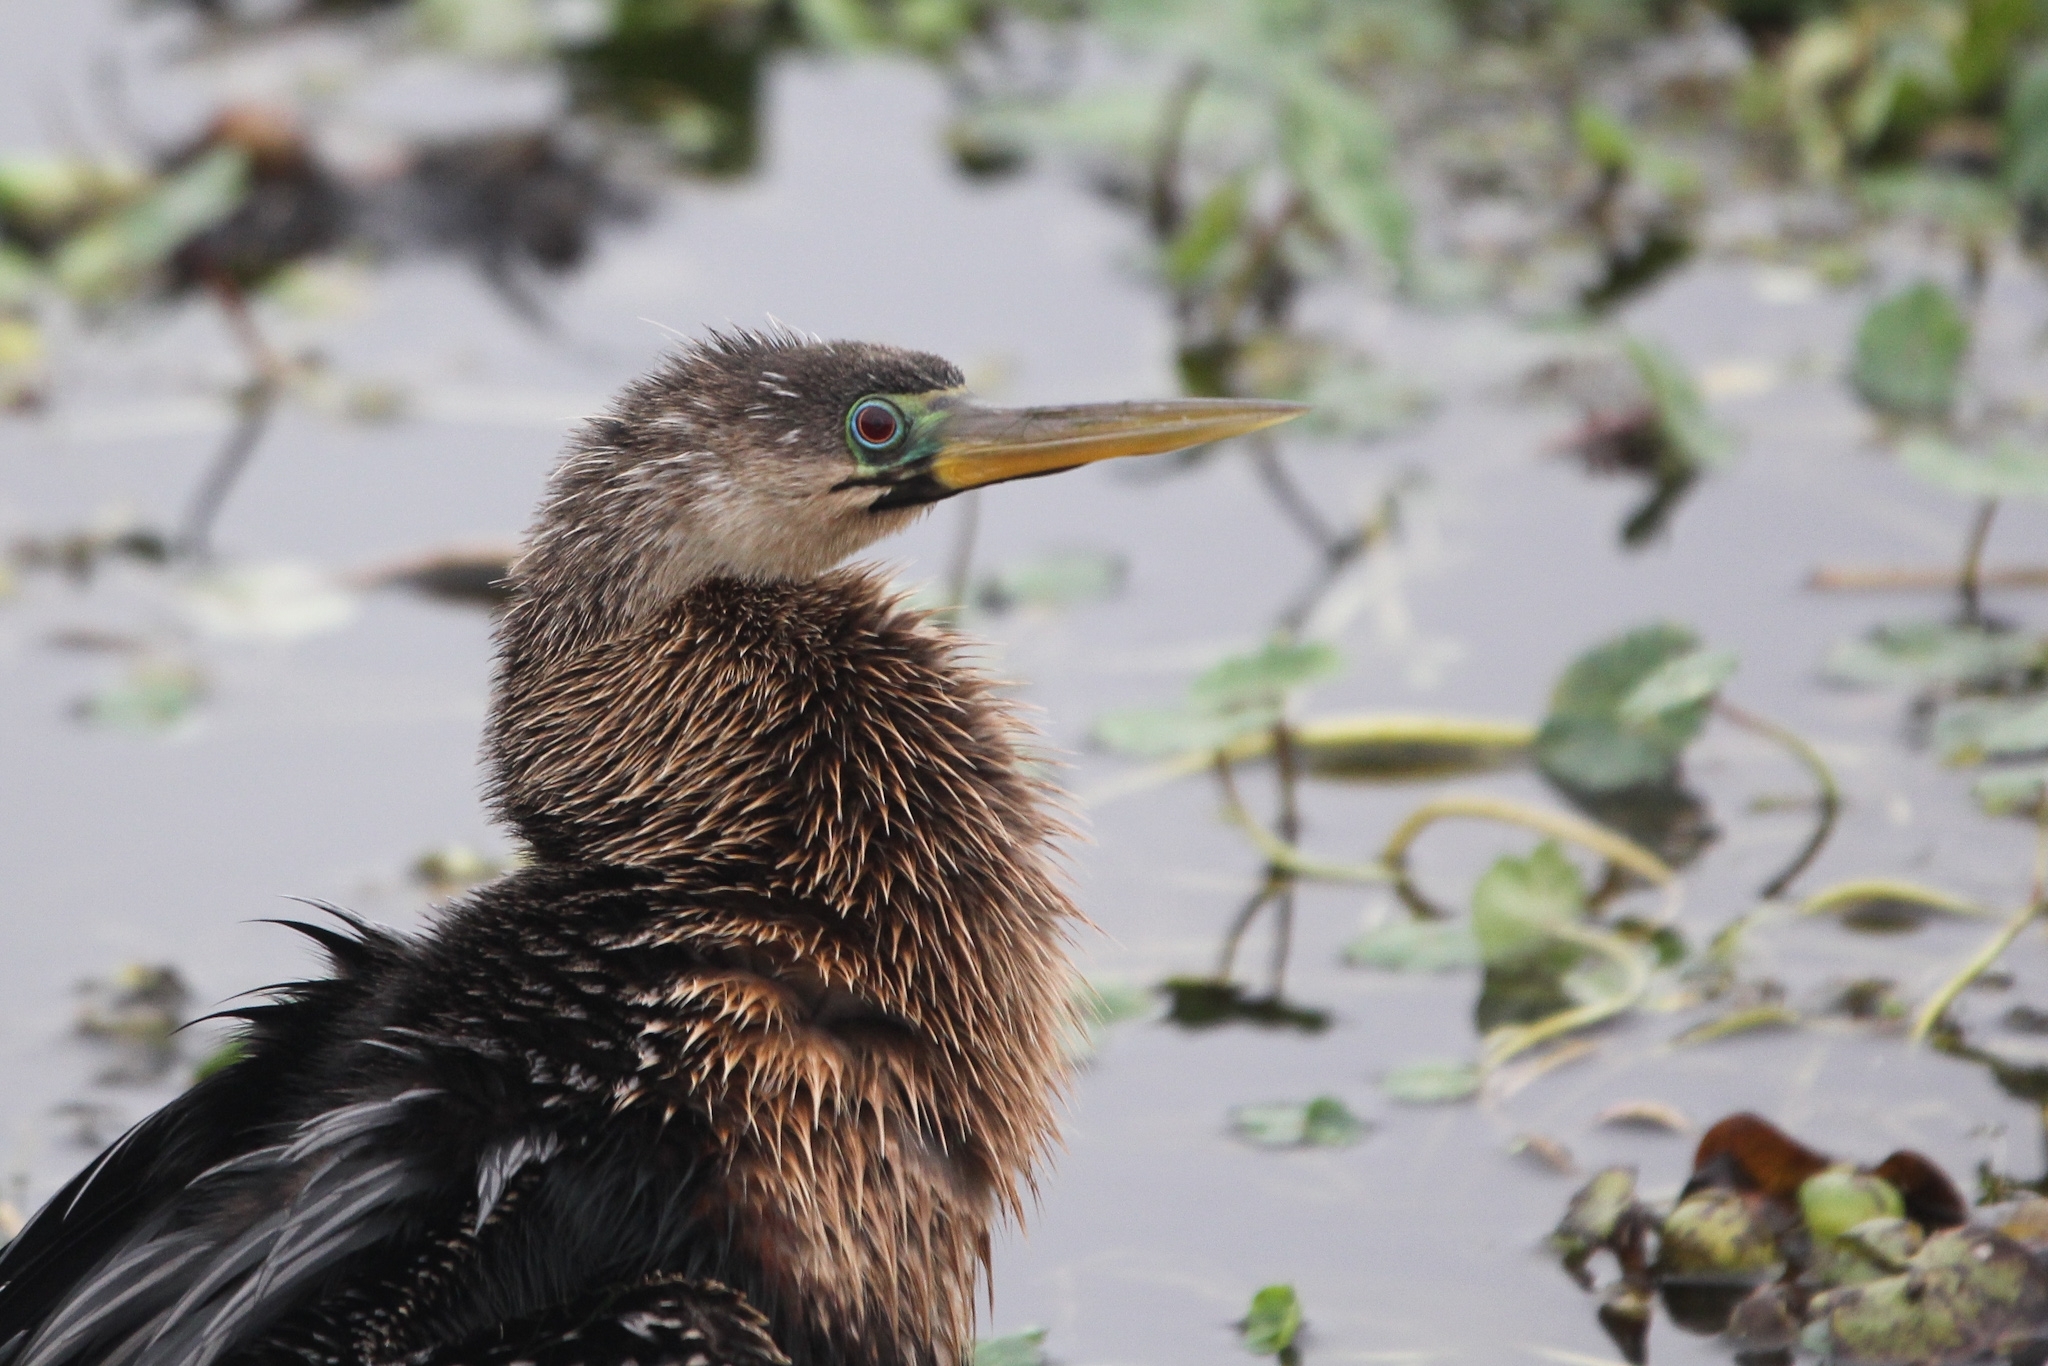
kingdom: Animalia
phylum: Chordata
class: Aves
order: Suliformes
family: Anhingidae
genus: Anhinga
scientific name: Anhinga anhinga
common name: Anhinga
